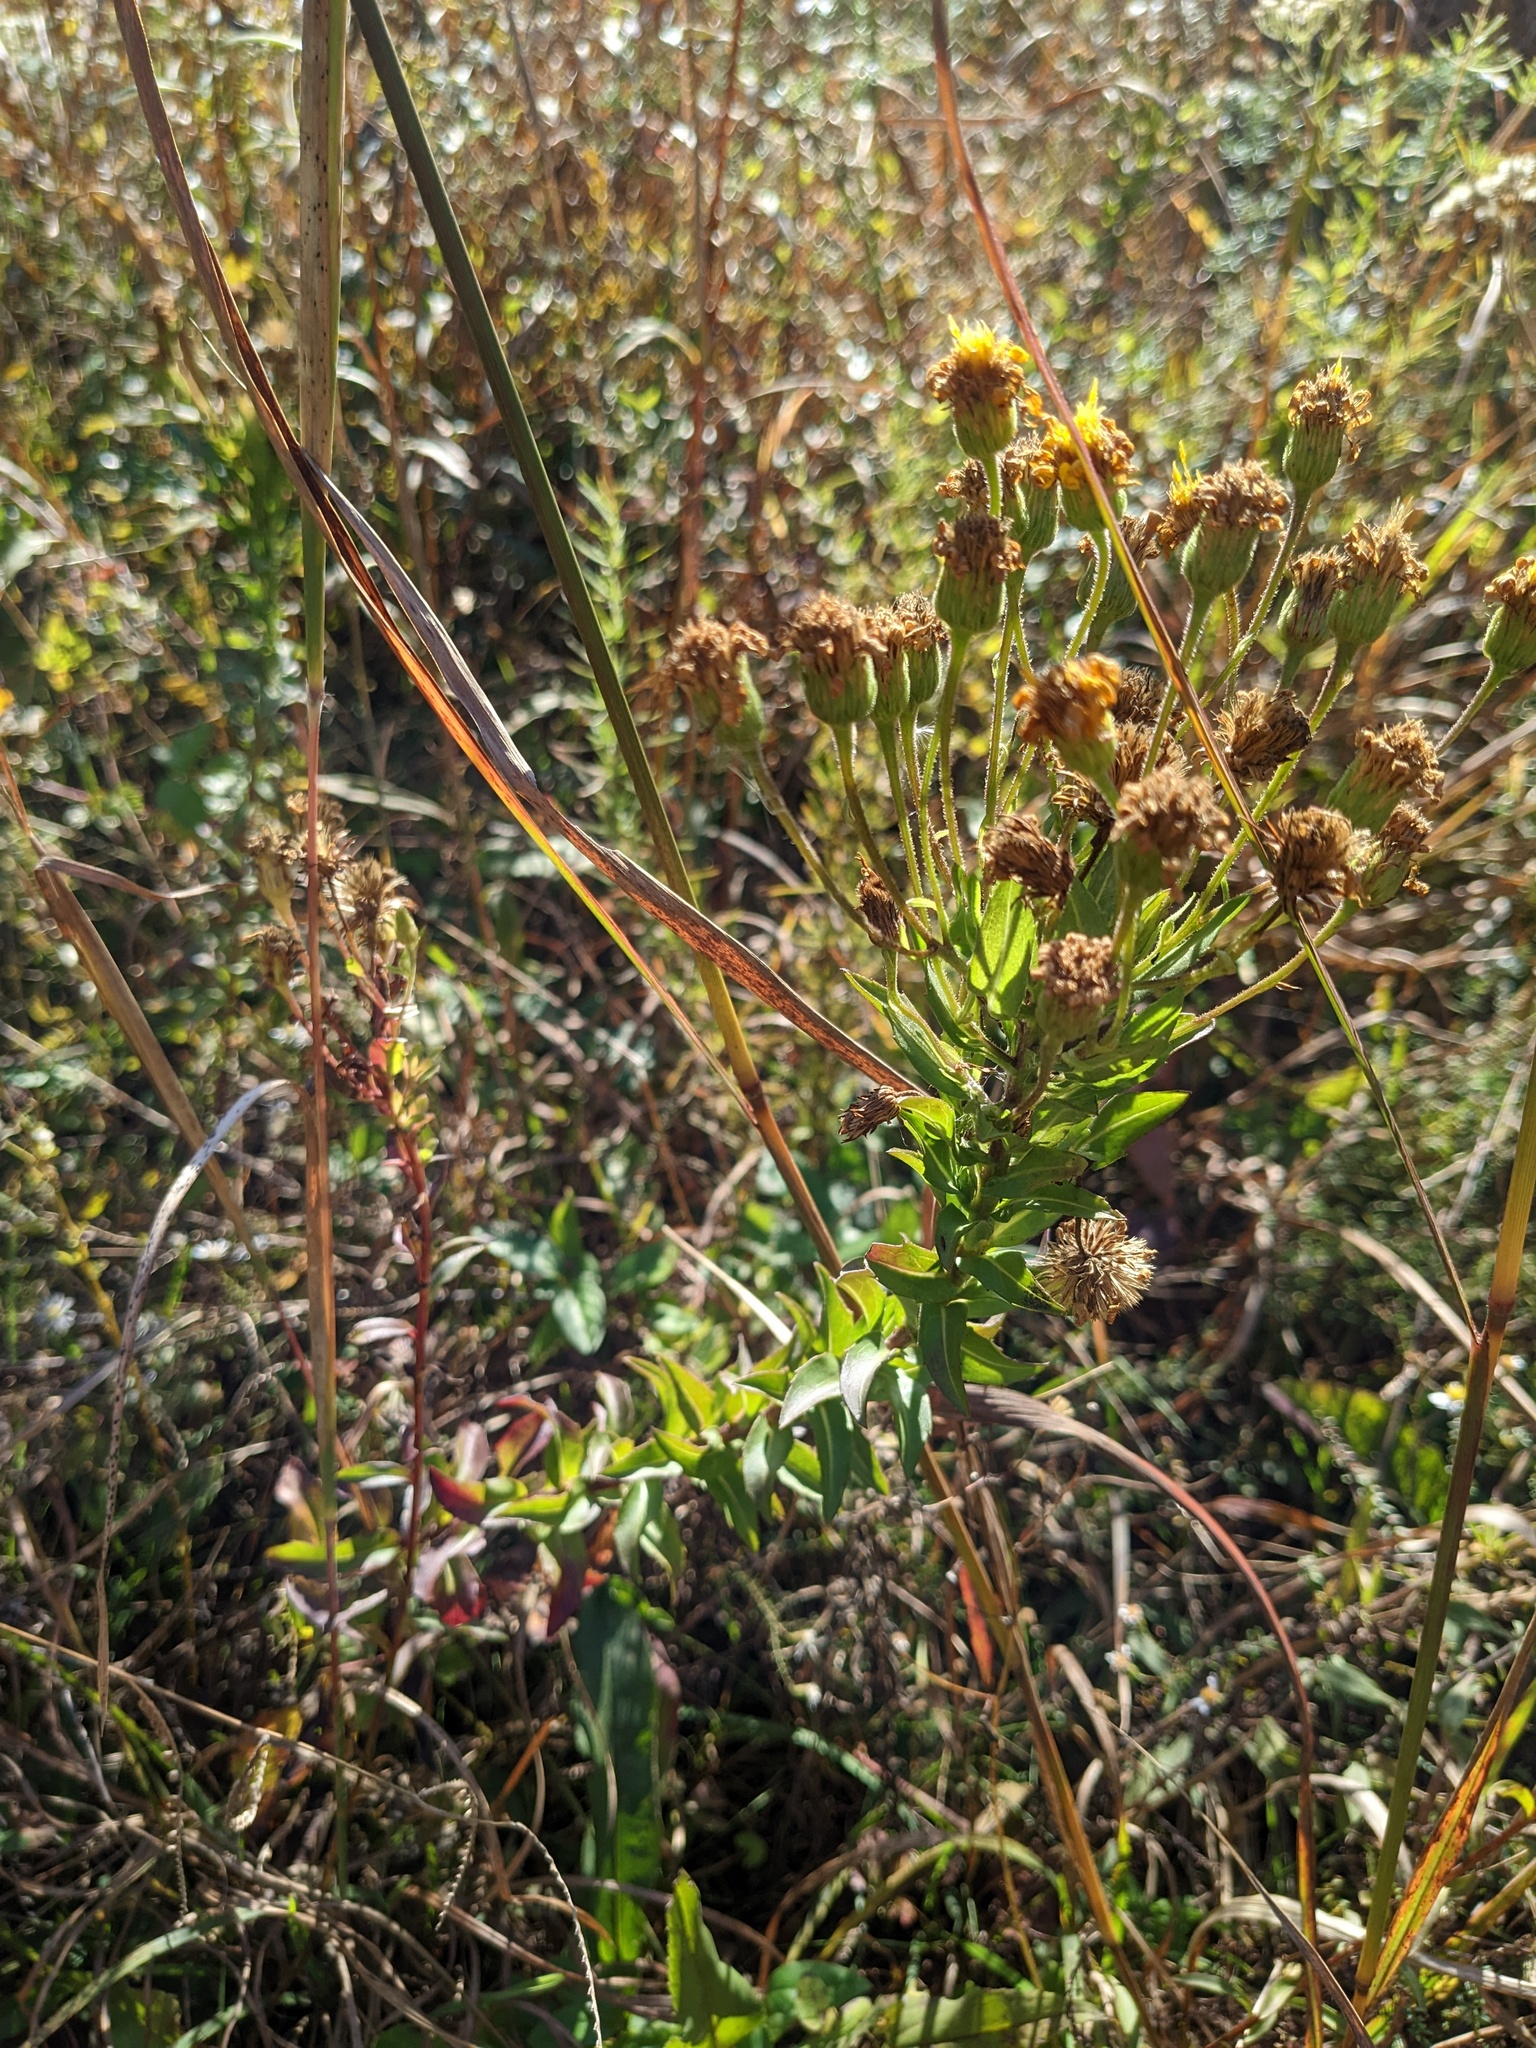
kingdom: Plantae
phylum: Tracheophyta
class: Magnoliopsida
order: Asterales
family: Asteraceae
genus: Chrysopsis
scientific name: Chrysopsis mariana
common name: Maryland golden-aster
